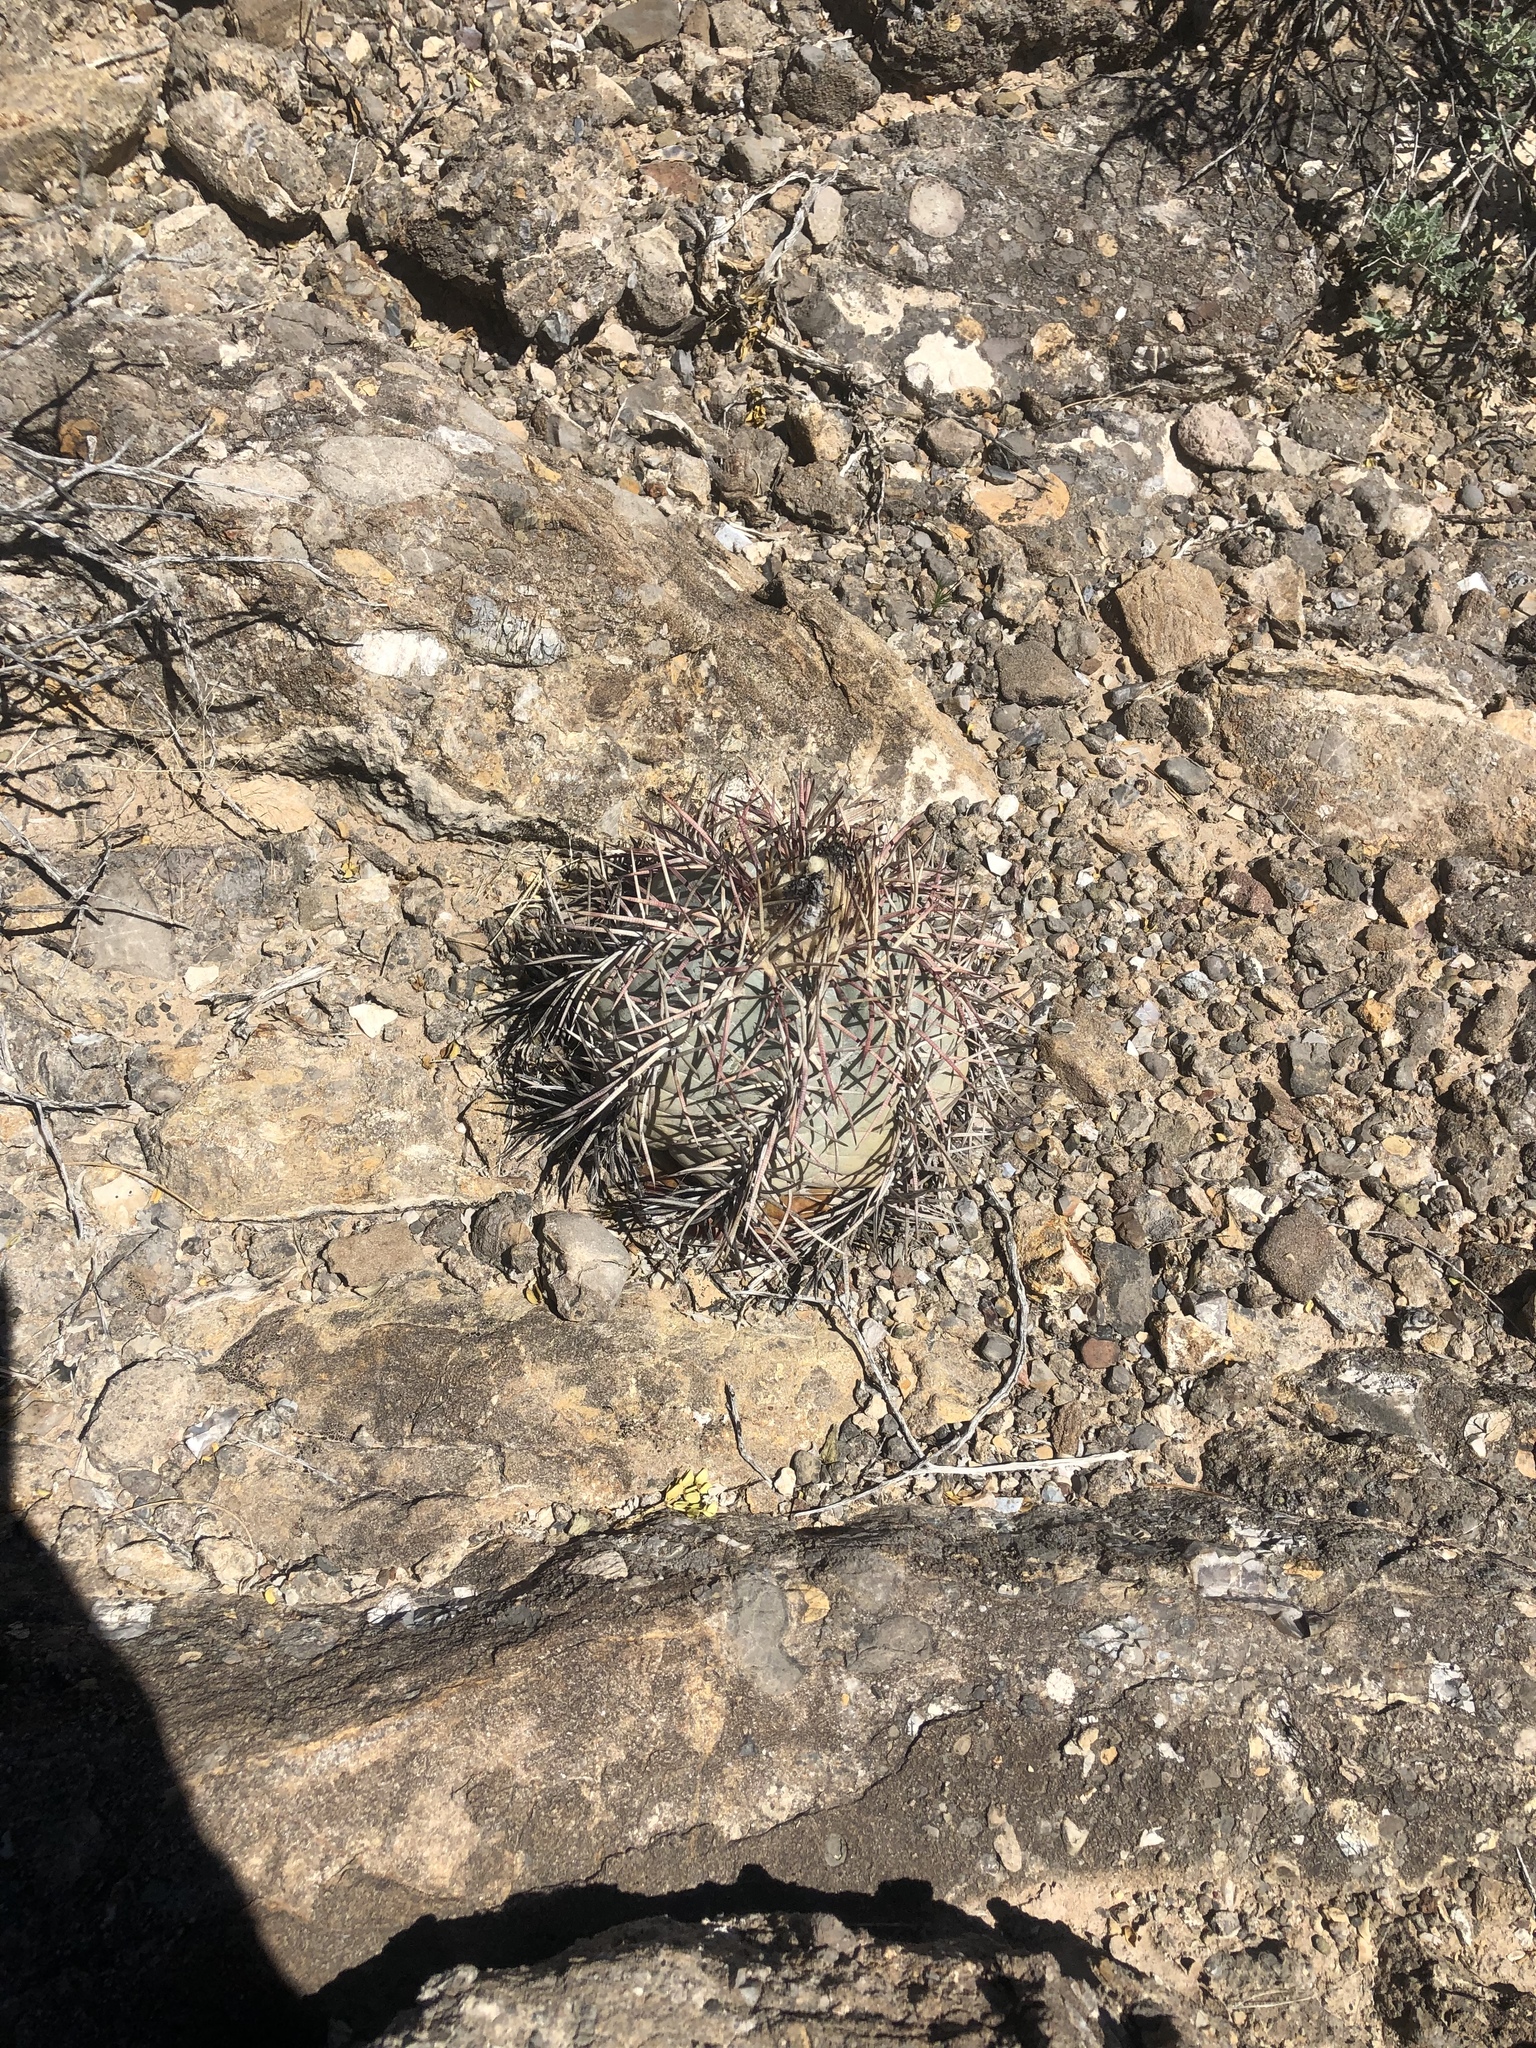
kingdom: Plantae
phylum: Tracheophyta
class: Magnoliopsida
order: Caryophyllales
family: Cactaceae
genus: Echinocactus
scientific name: Echinocactus horizonthalonius
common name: Devilshead
